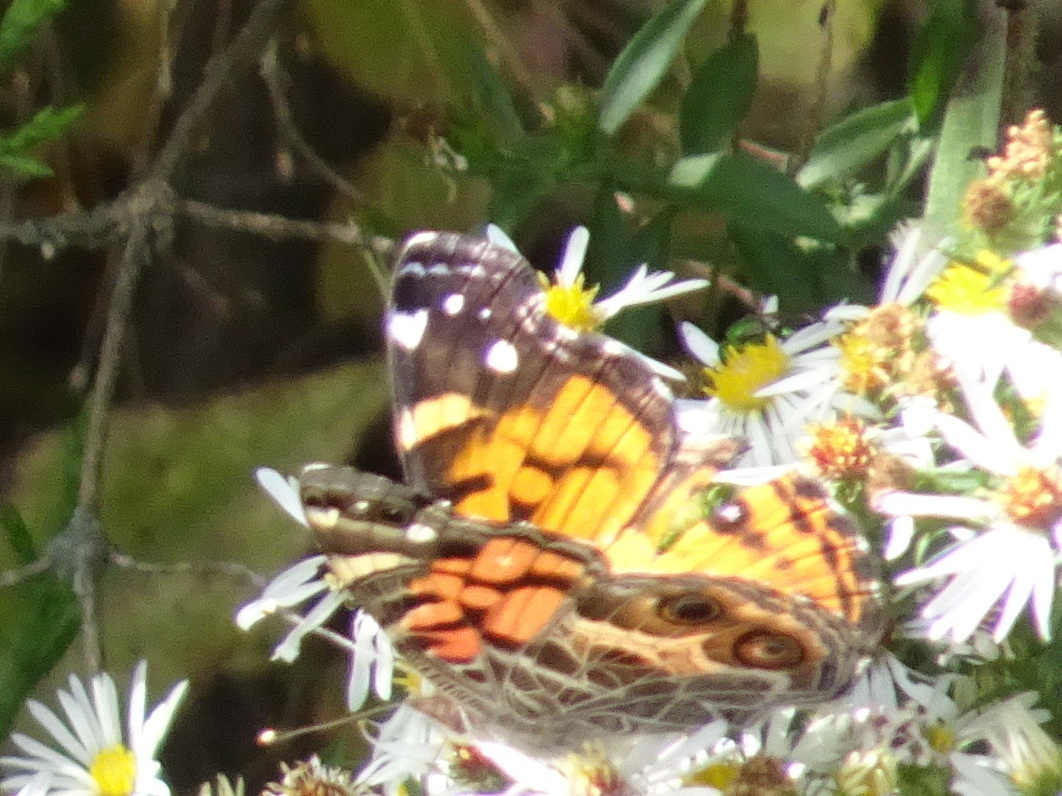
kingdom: Animalia
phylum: Arthropoda
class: Insecta
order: Lepidoptera
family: Nymphalidae
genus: Vanessa
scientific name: Vanessa virginiensis
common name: American lady
